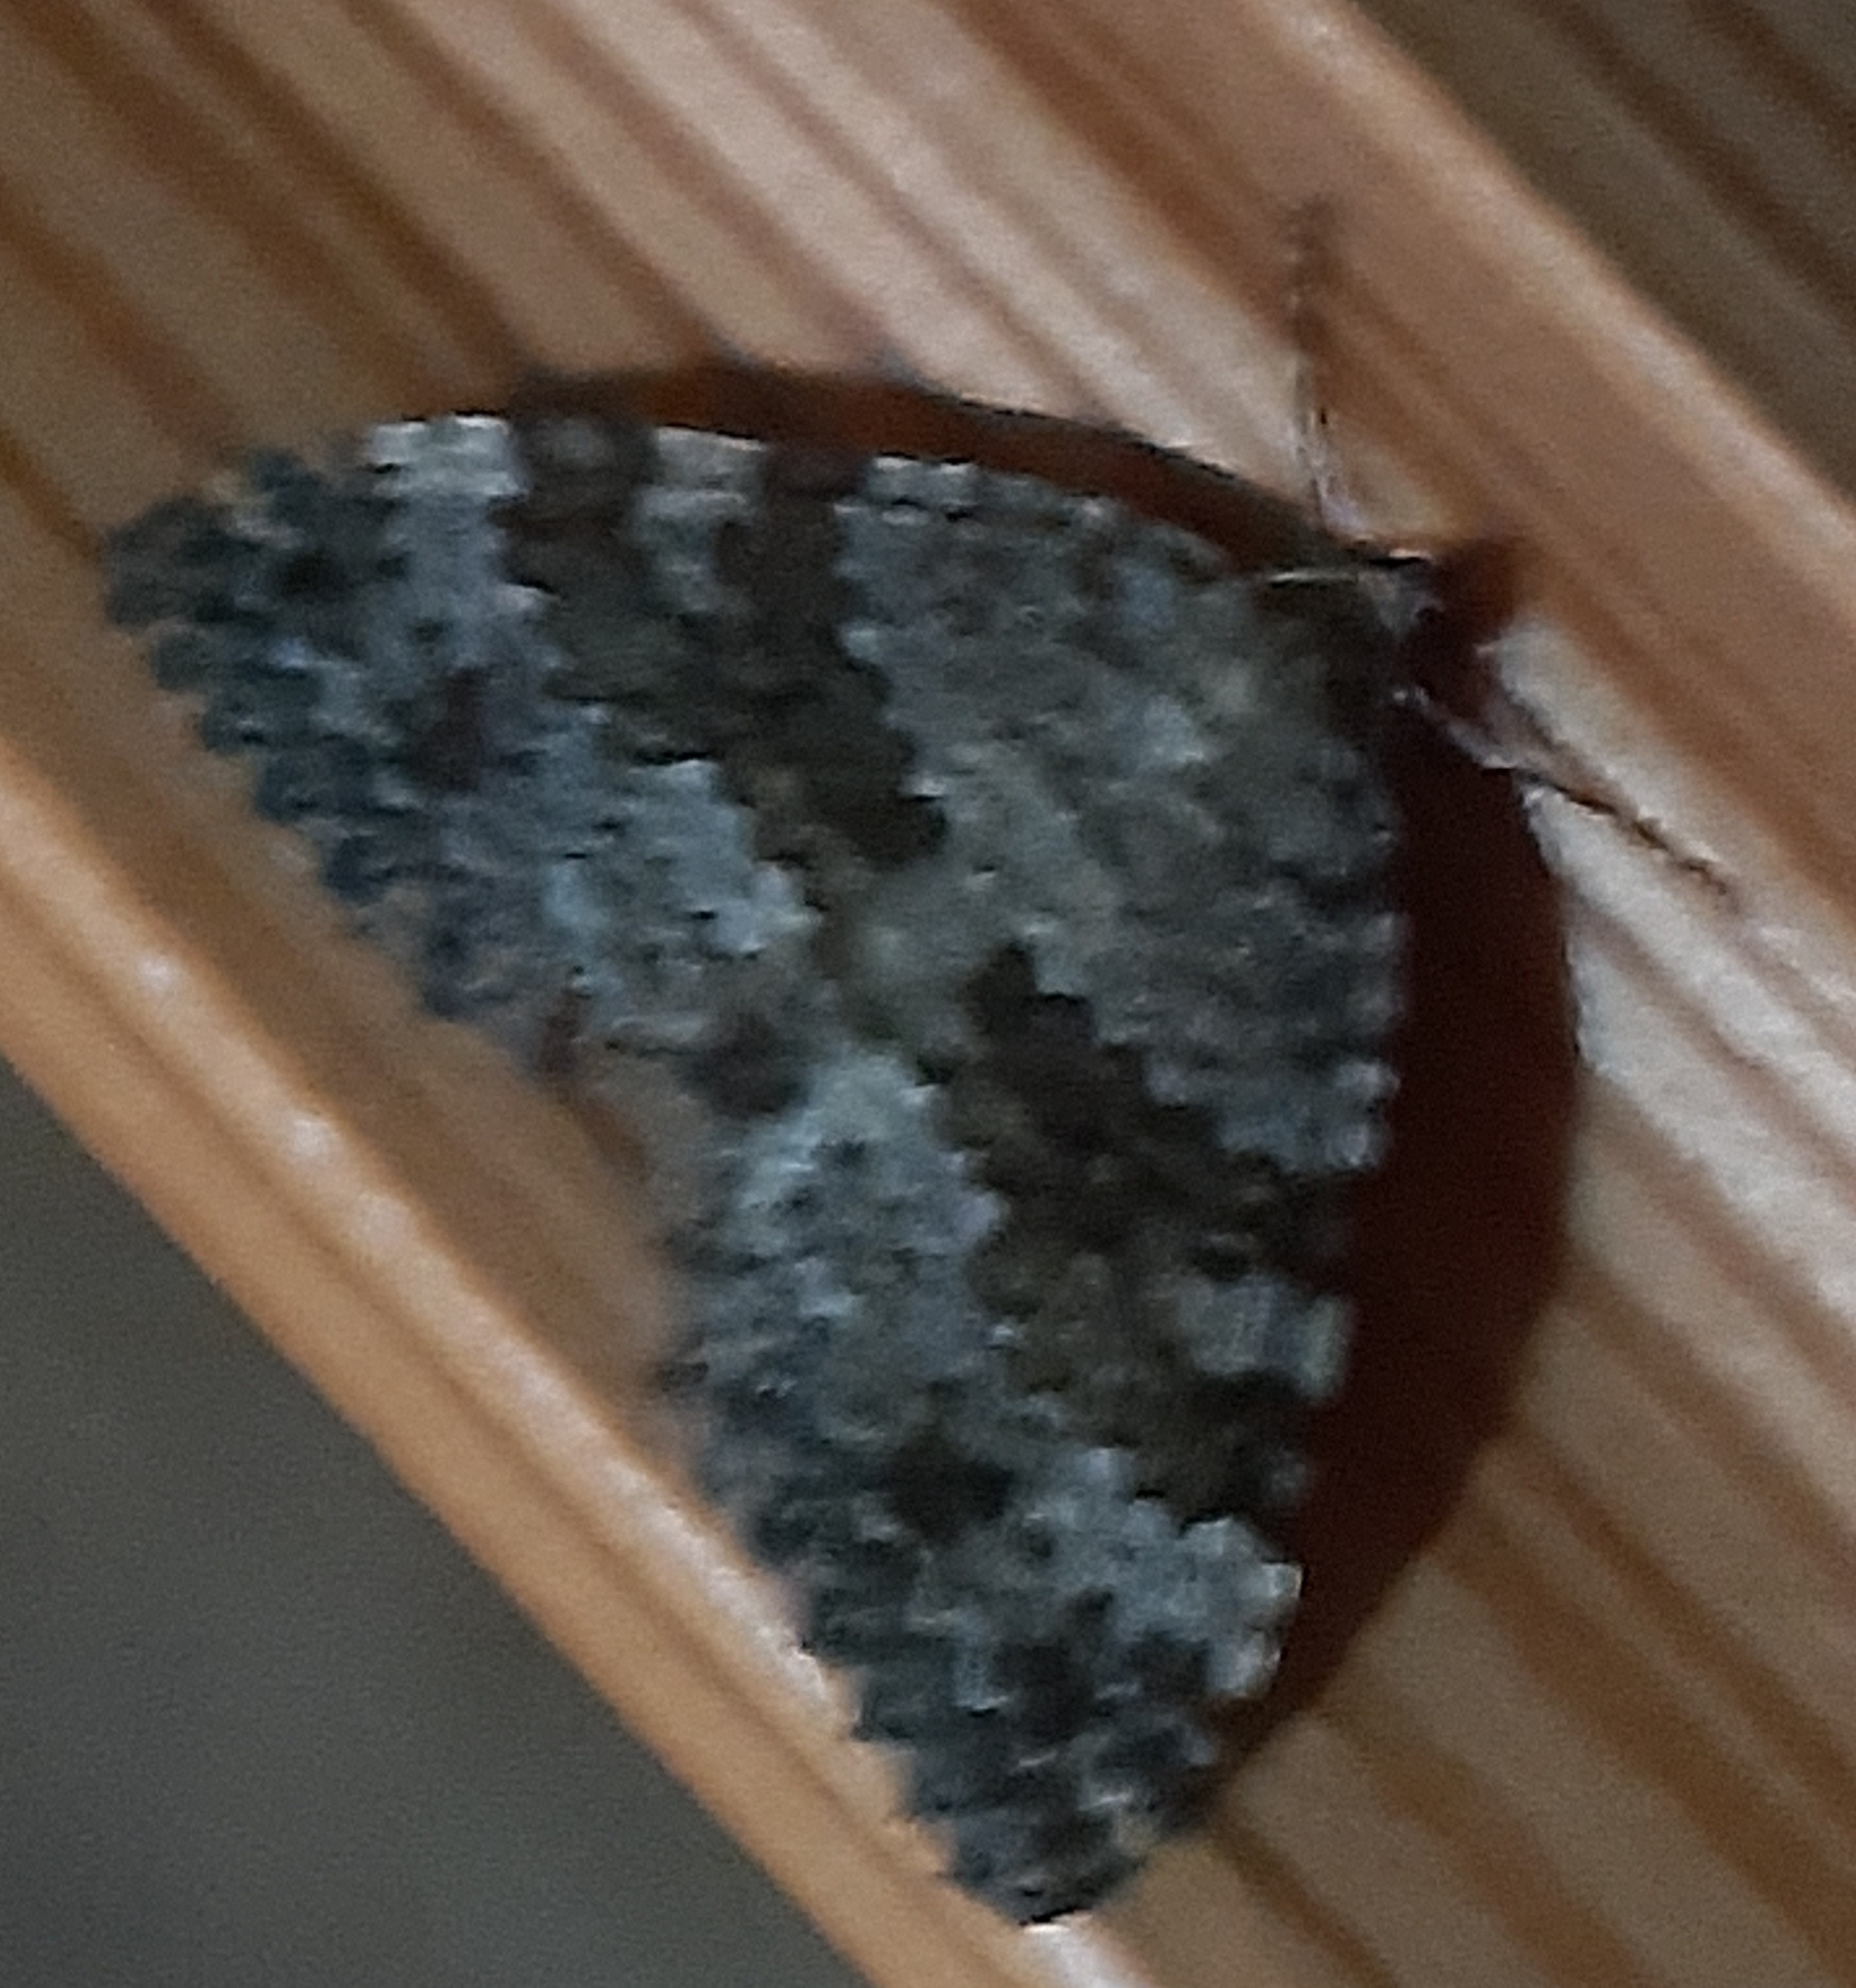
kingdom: Animalia
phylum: Arthropoda
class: Insecta
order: Lepidoptera
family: Geometridae
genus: Entephria
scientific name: Entephria caesiata
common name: Grey mountain moth
